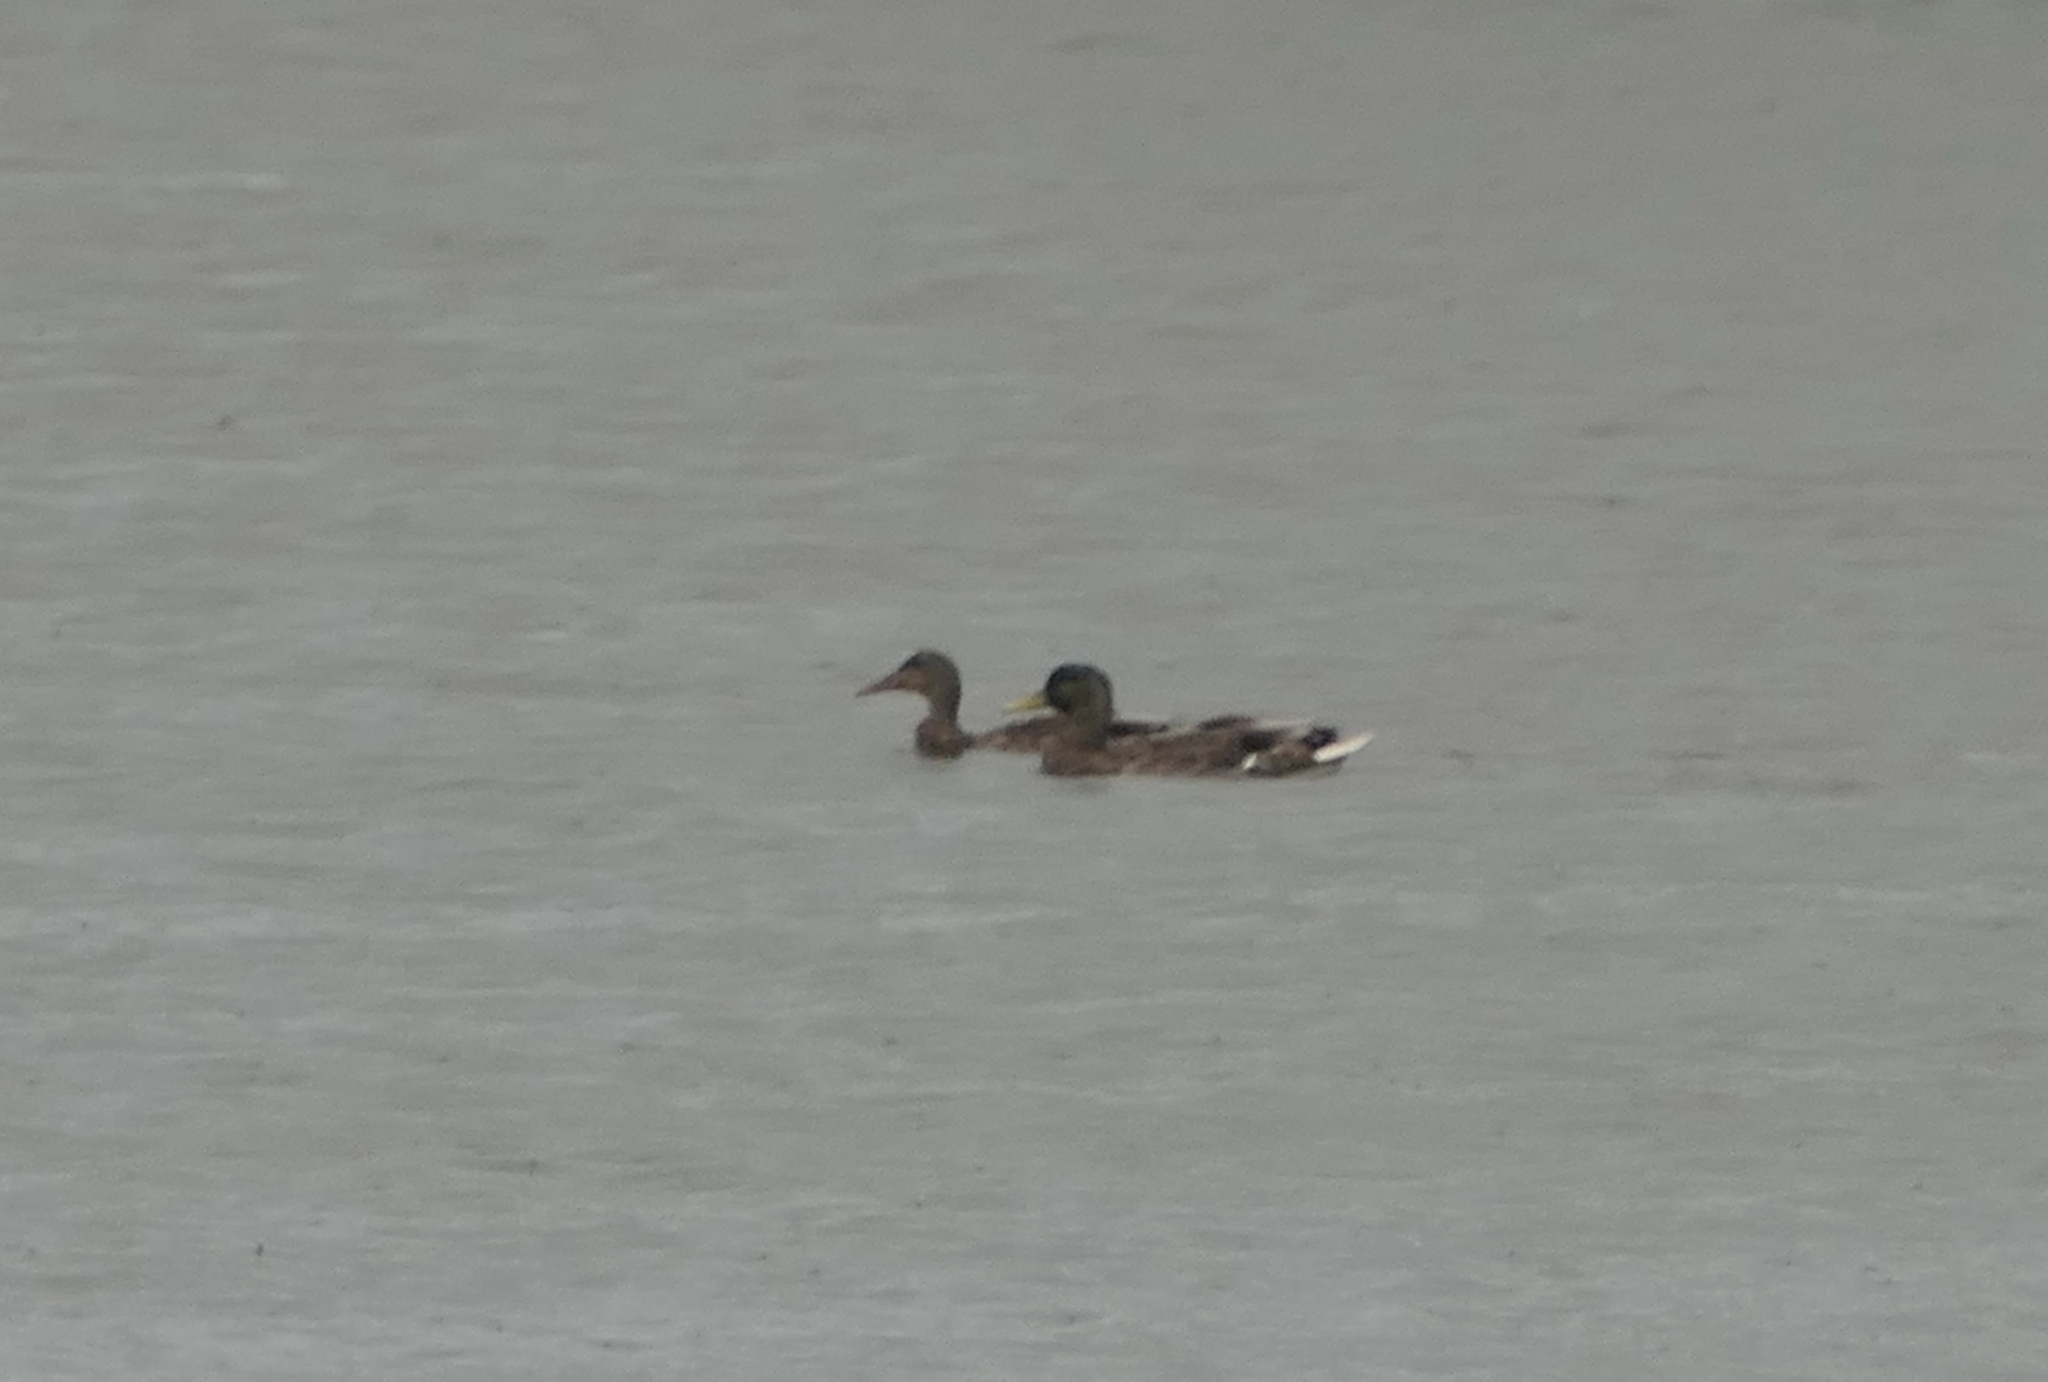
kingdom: Animalia
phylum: Chordata
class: Aves
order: Anseriformes
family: Anatidae
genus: Anas
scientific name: Anas platyrhynchos
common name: Mallard
